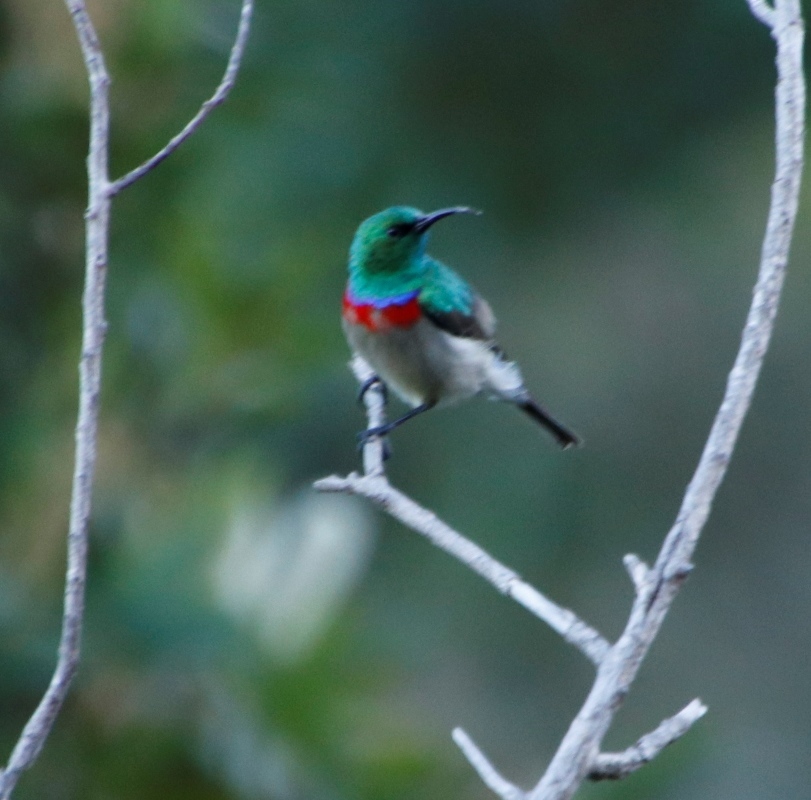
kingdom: Animalia
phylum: Chordata
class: Aves
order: Passeriformes
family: Nectariniidae
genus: Cinnyris
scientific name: Cinnyris chalybeus
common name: Southern double-collared sunbird
